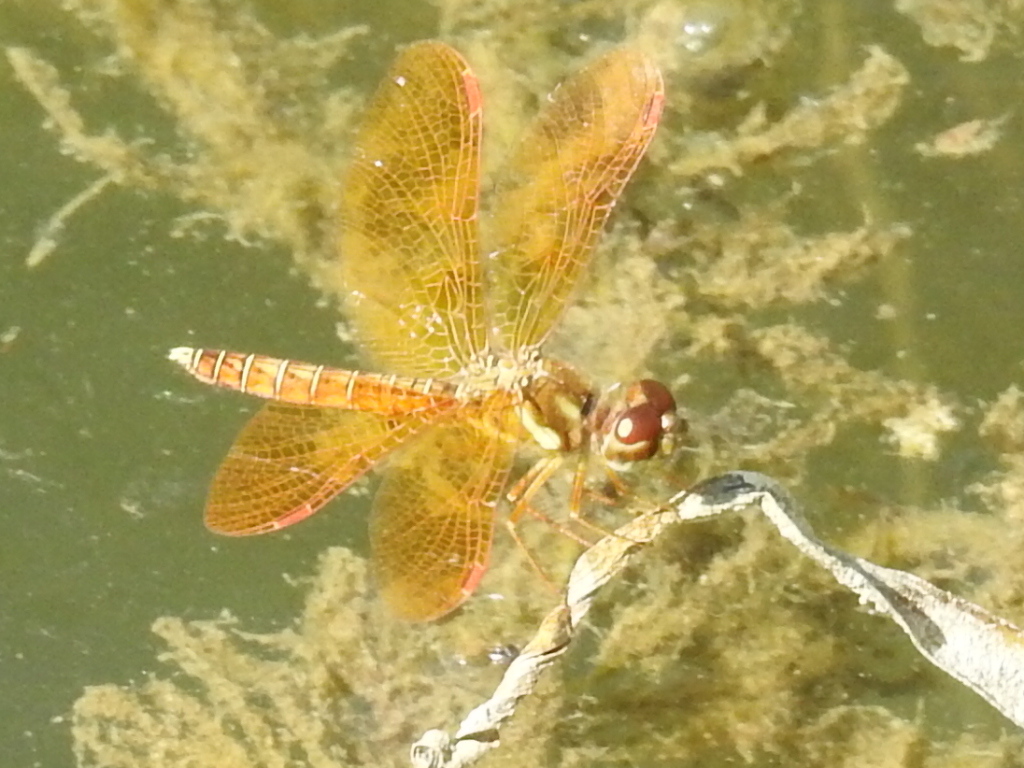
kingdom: Animalia
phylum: Arthropoda
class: Insecta
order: Odonata
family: Libellulidae
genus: Perithemis
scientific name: Perithemis tenera
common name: Eastern amberwing
